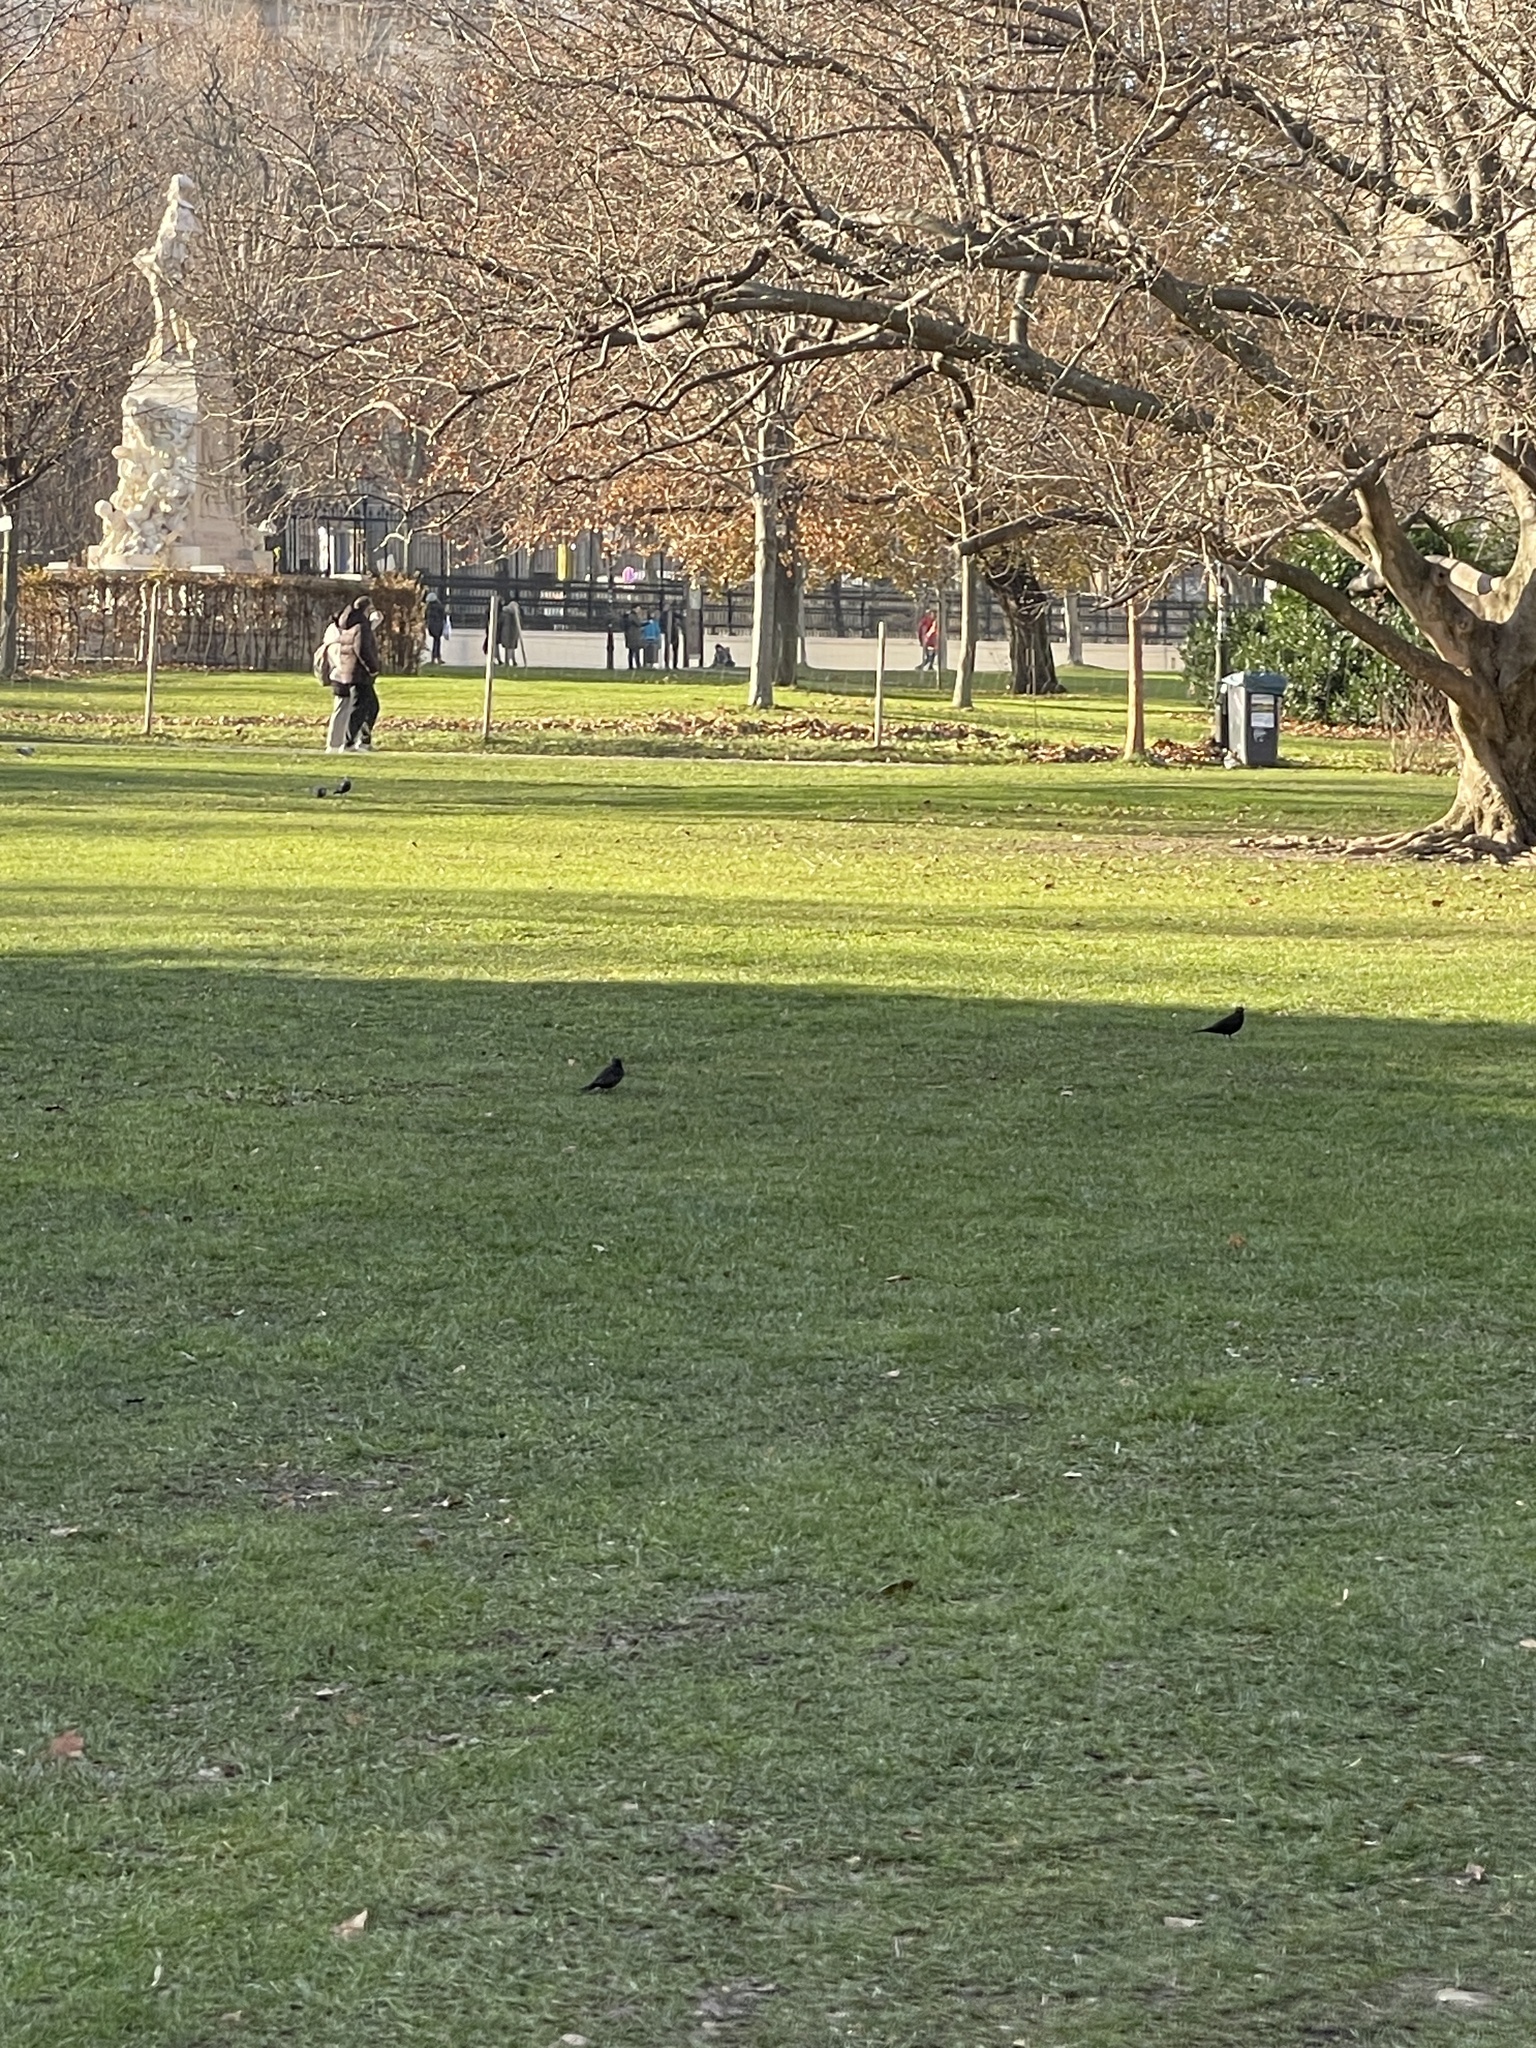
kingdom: Animalia
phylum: Chordata
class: Aves
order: Passeriformes
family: Turdidae
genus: Turdus
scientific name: Turdus merula
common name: Common blackbird
